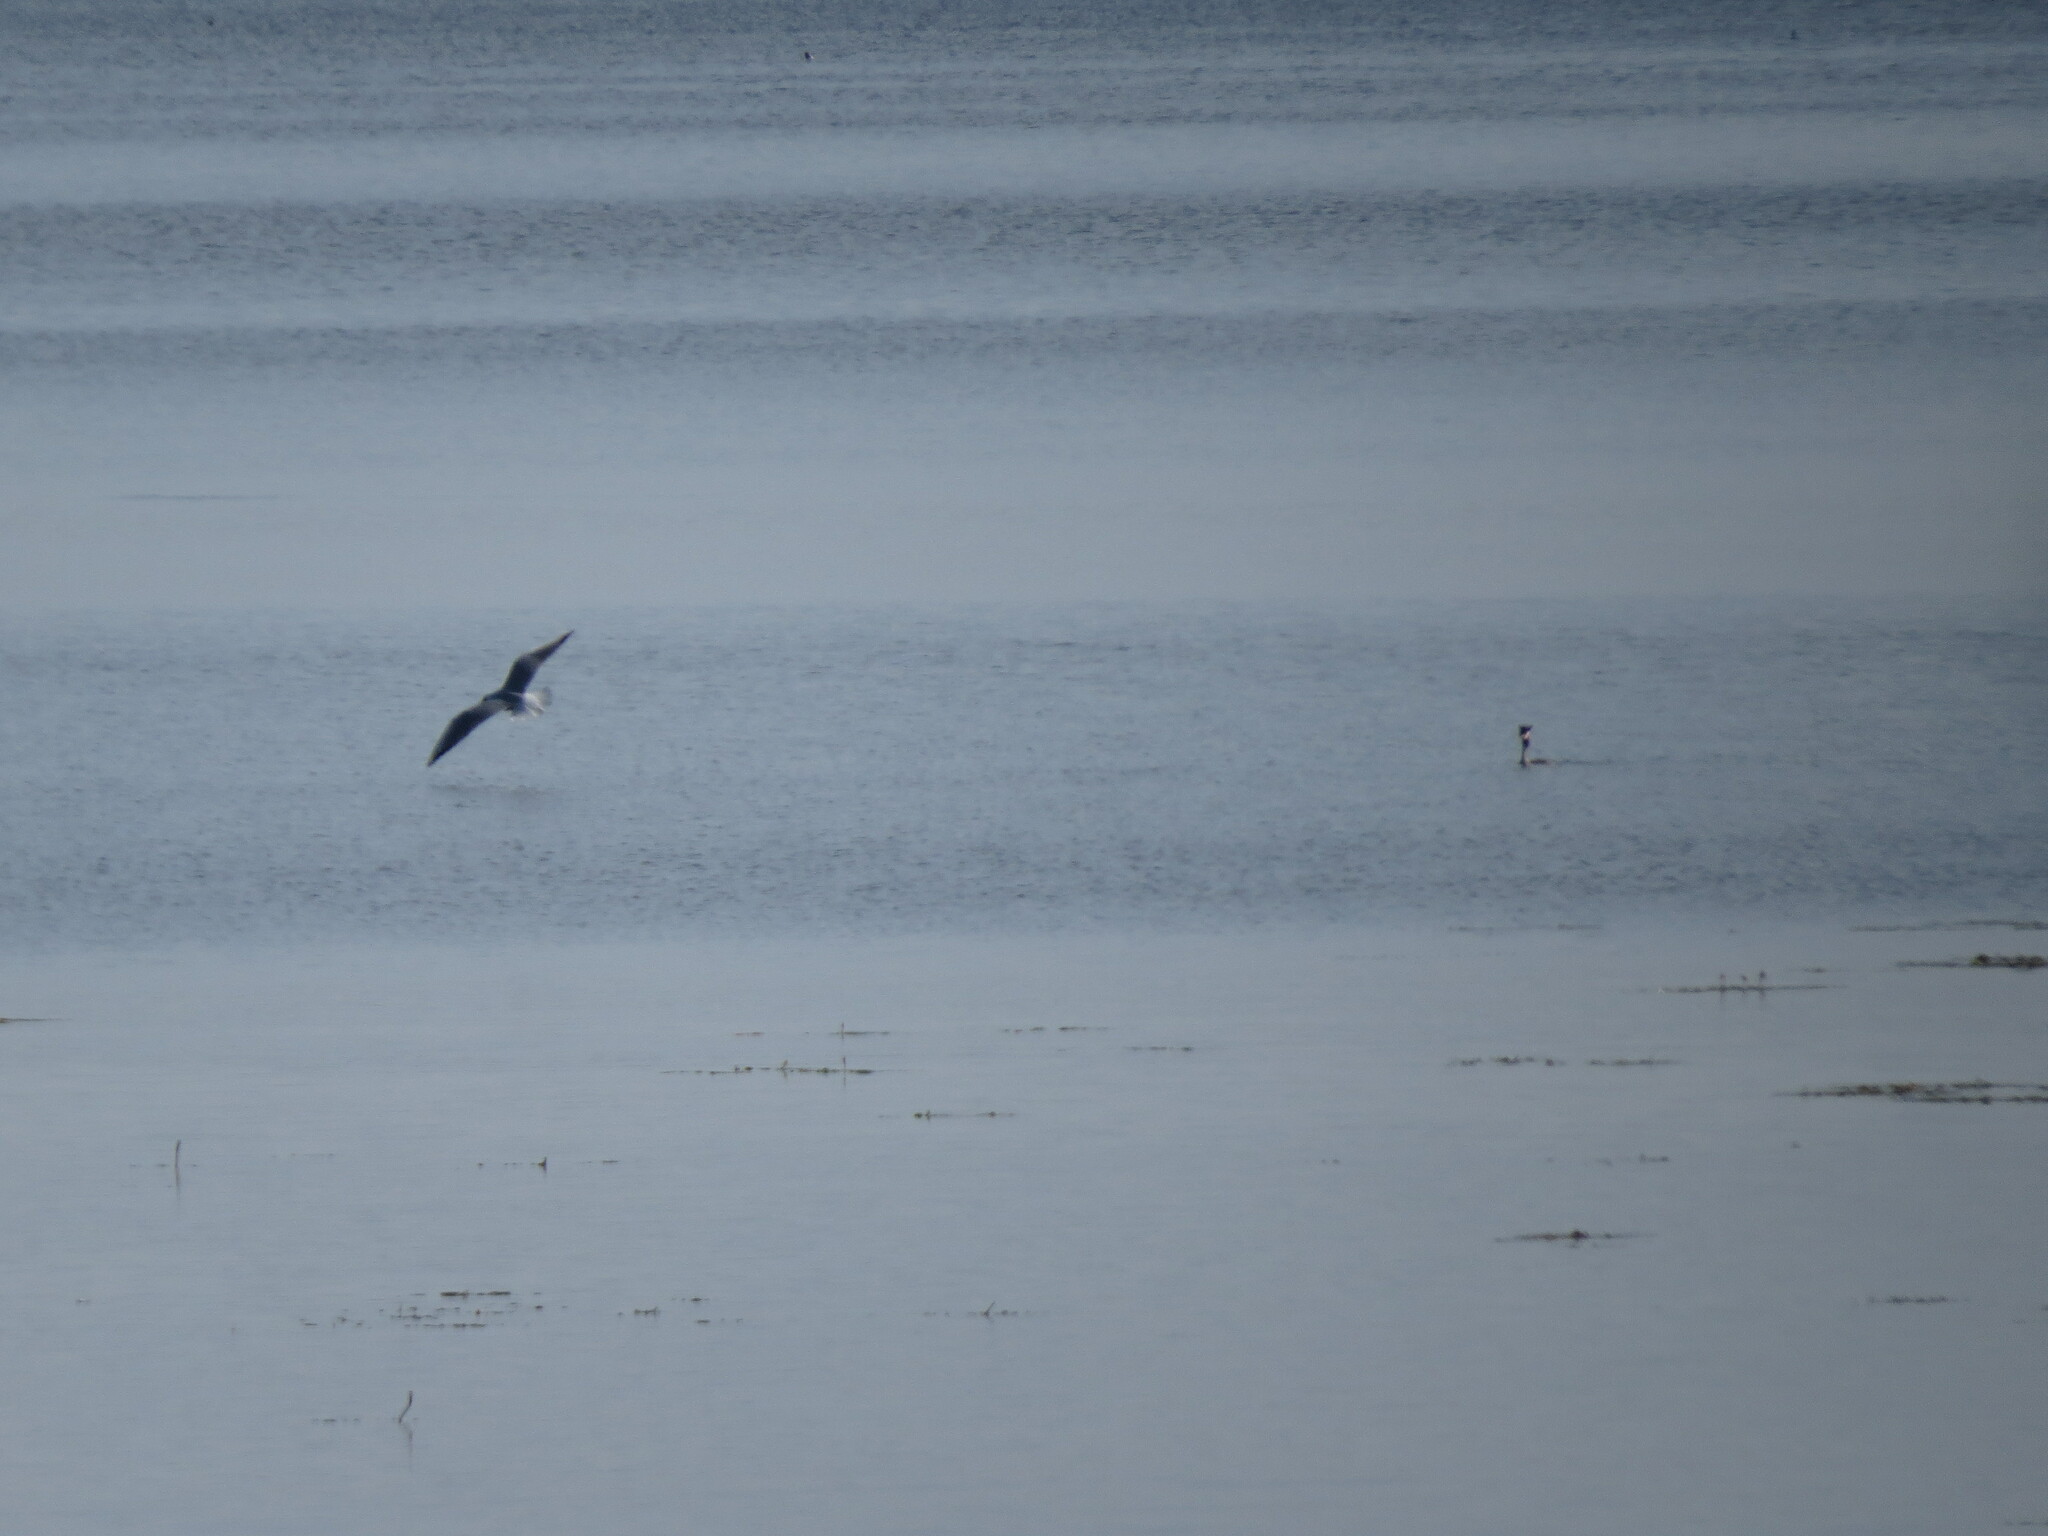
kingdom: Animalia
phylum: Chordata
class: Aves
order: Charadriiformes
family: Laridae
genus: Chroicocephalus
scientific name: Chroicocephalus ridibundus
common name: Black-headed gull
